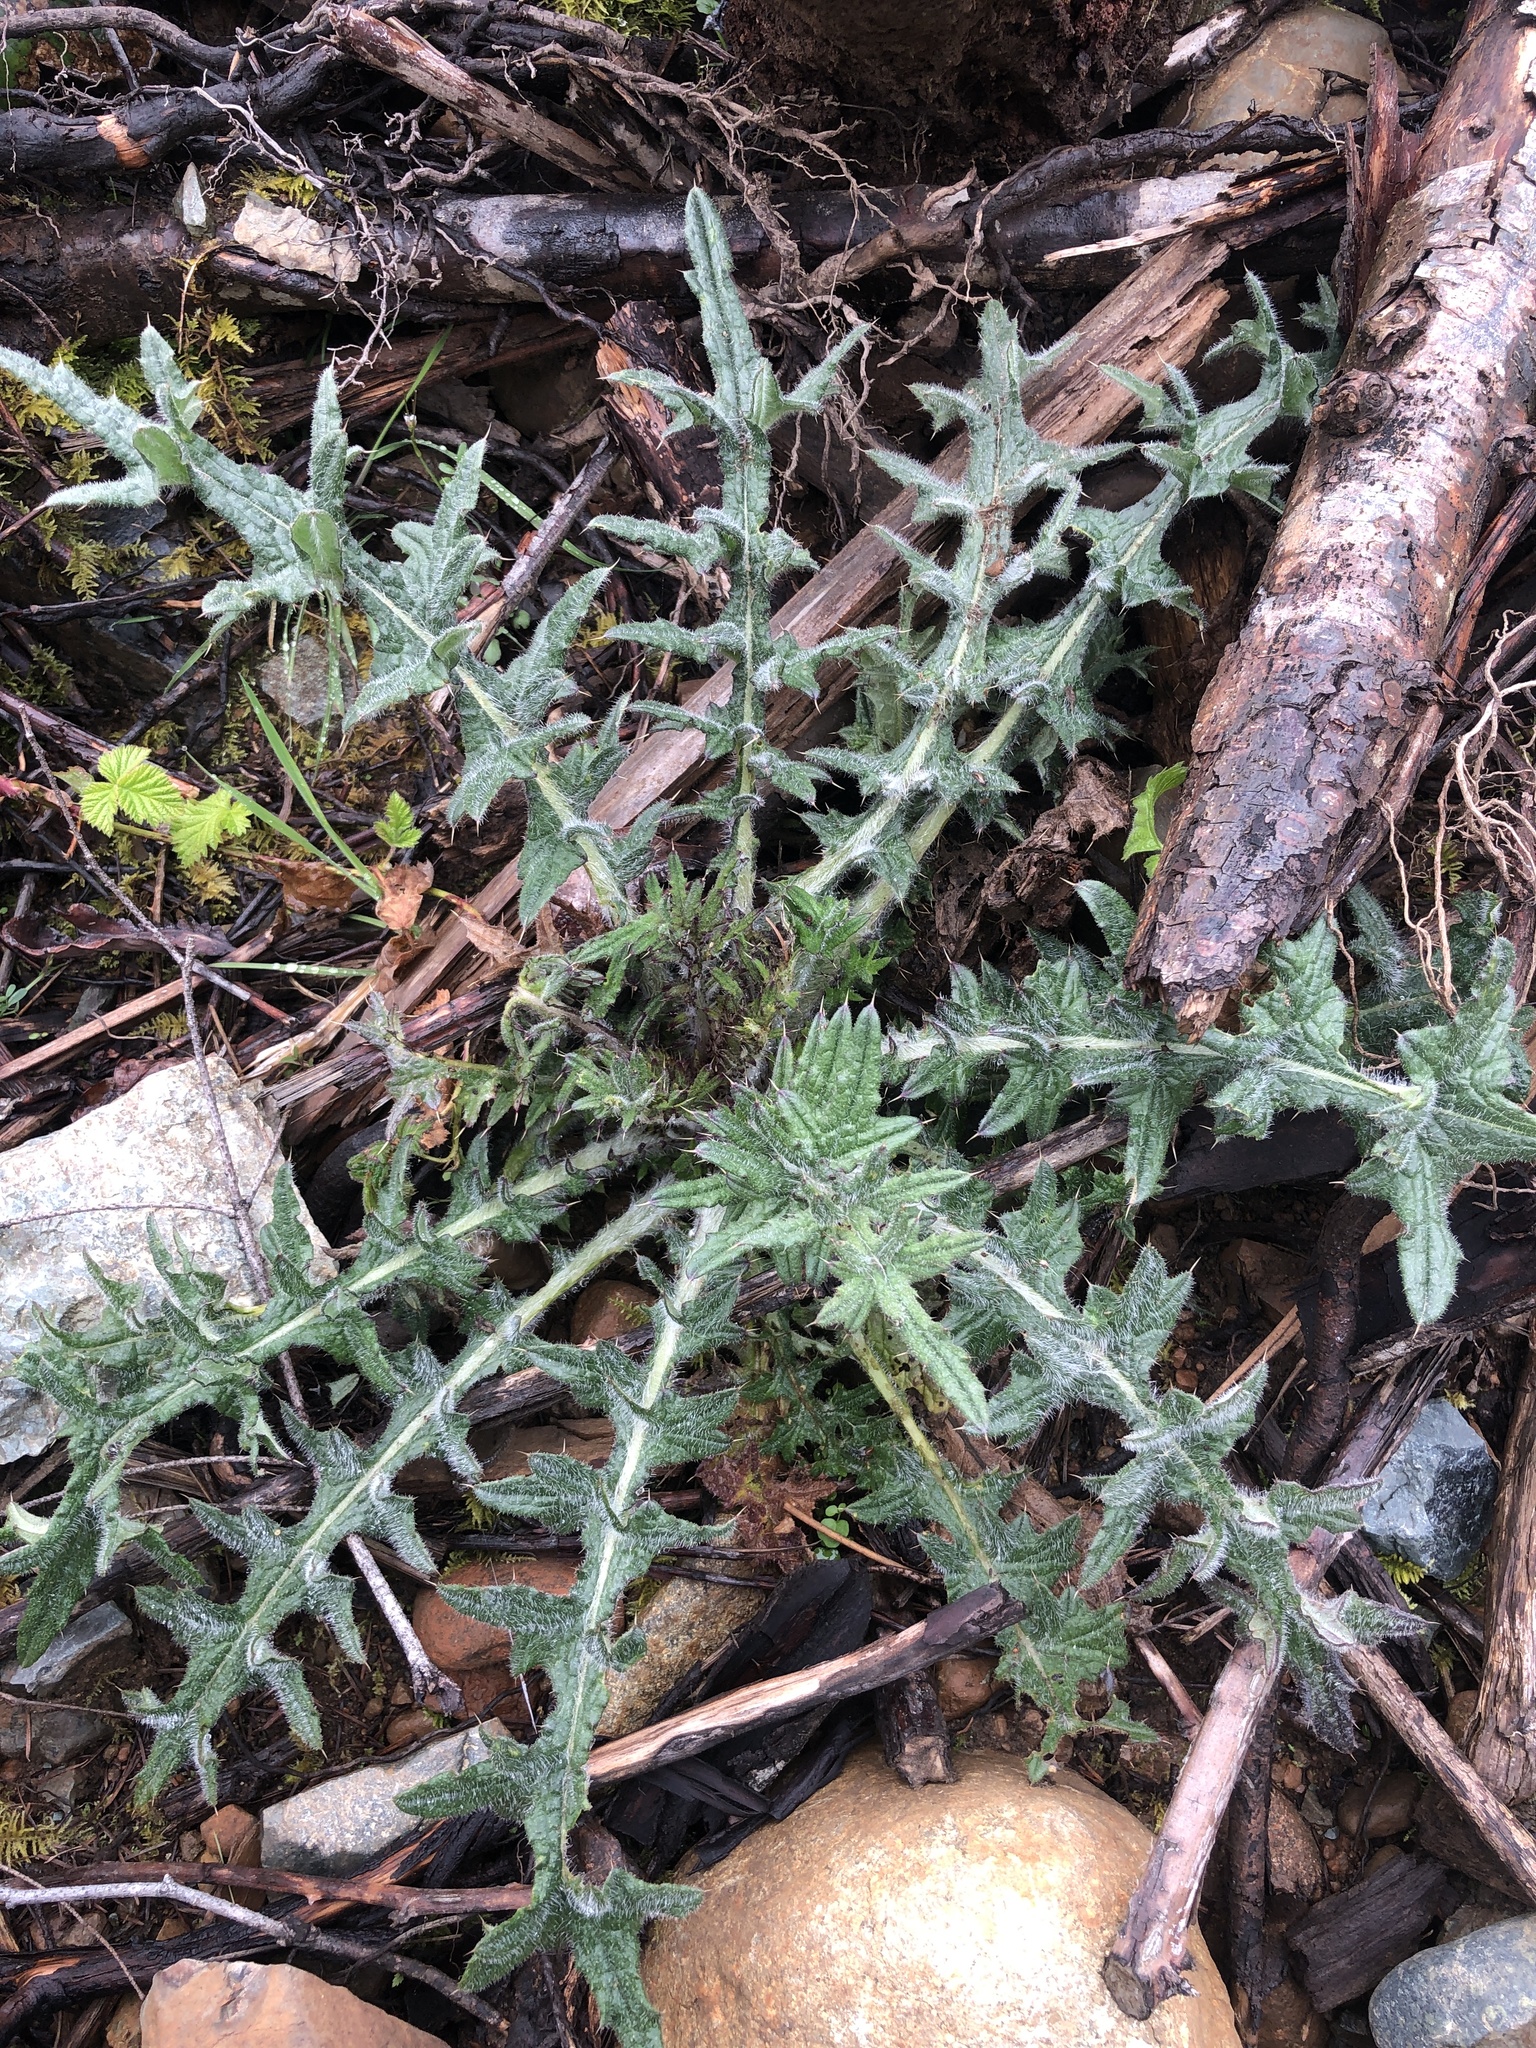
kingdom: Plantae
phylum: Tracheophyta
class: Magnoliopsida
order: Asterales
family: Asteraceae
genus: Cirsium
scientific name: Cirsium vulgare
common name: Bull thistle
